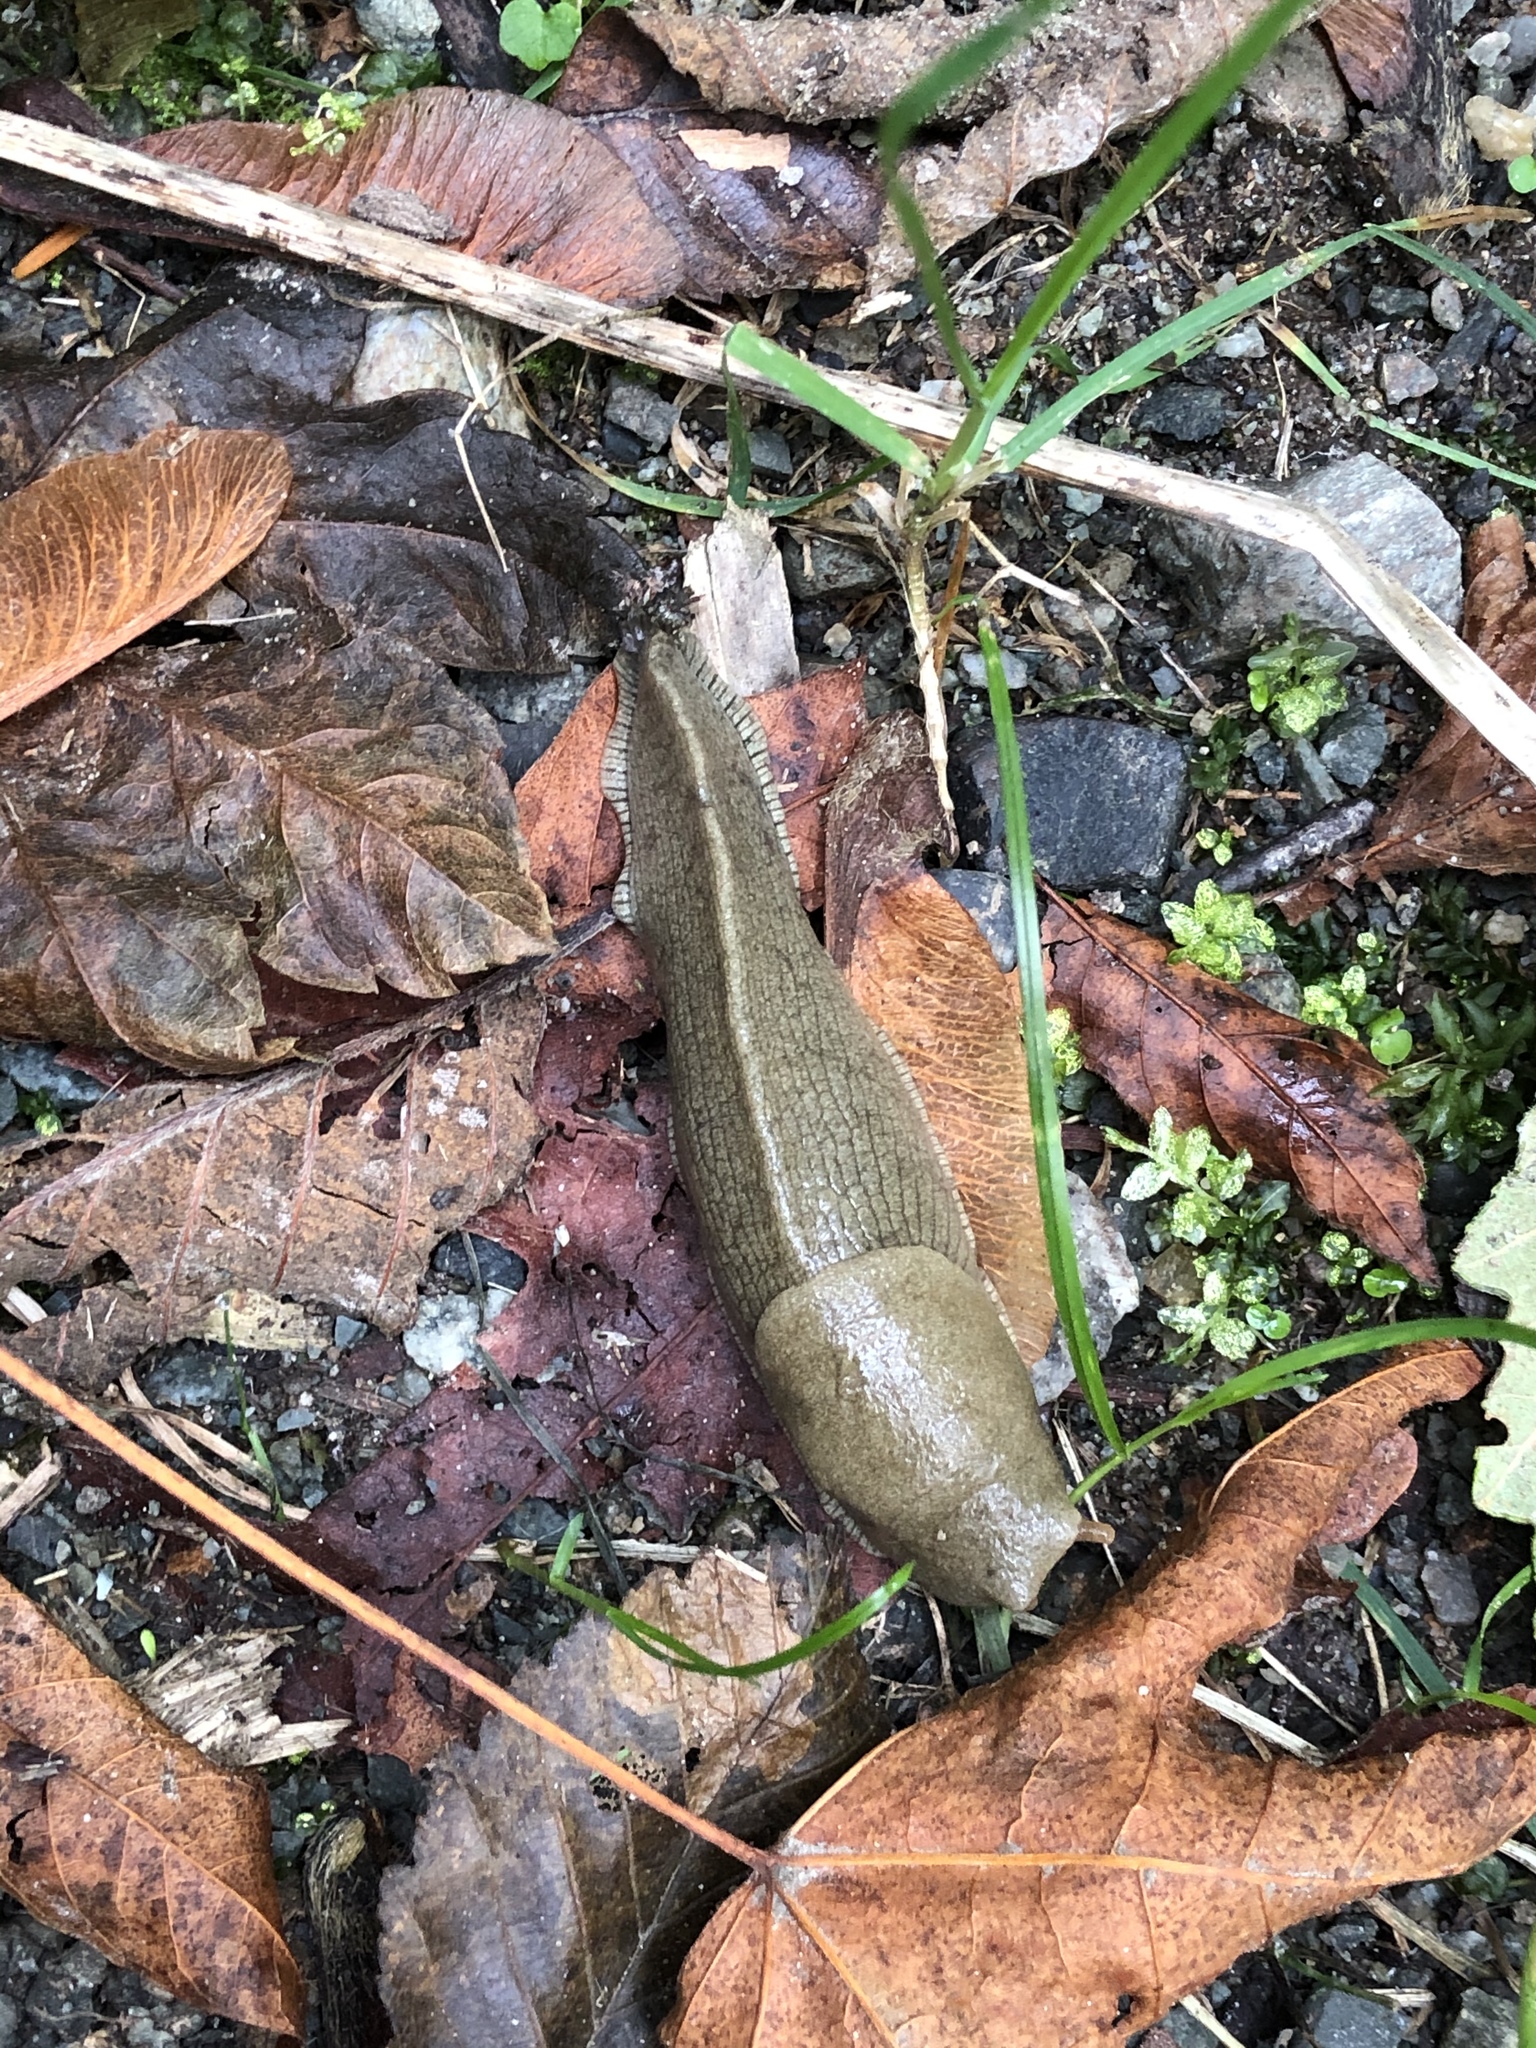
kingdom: Animalia
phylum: Mollusca
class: Gastropoda
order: Stylommatophora
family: Ariolimacidae
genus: Ariolimax
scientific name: Ariolimax columbianus
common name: Pacific banana slug
